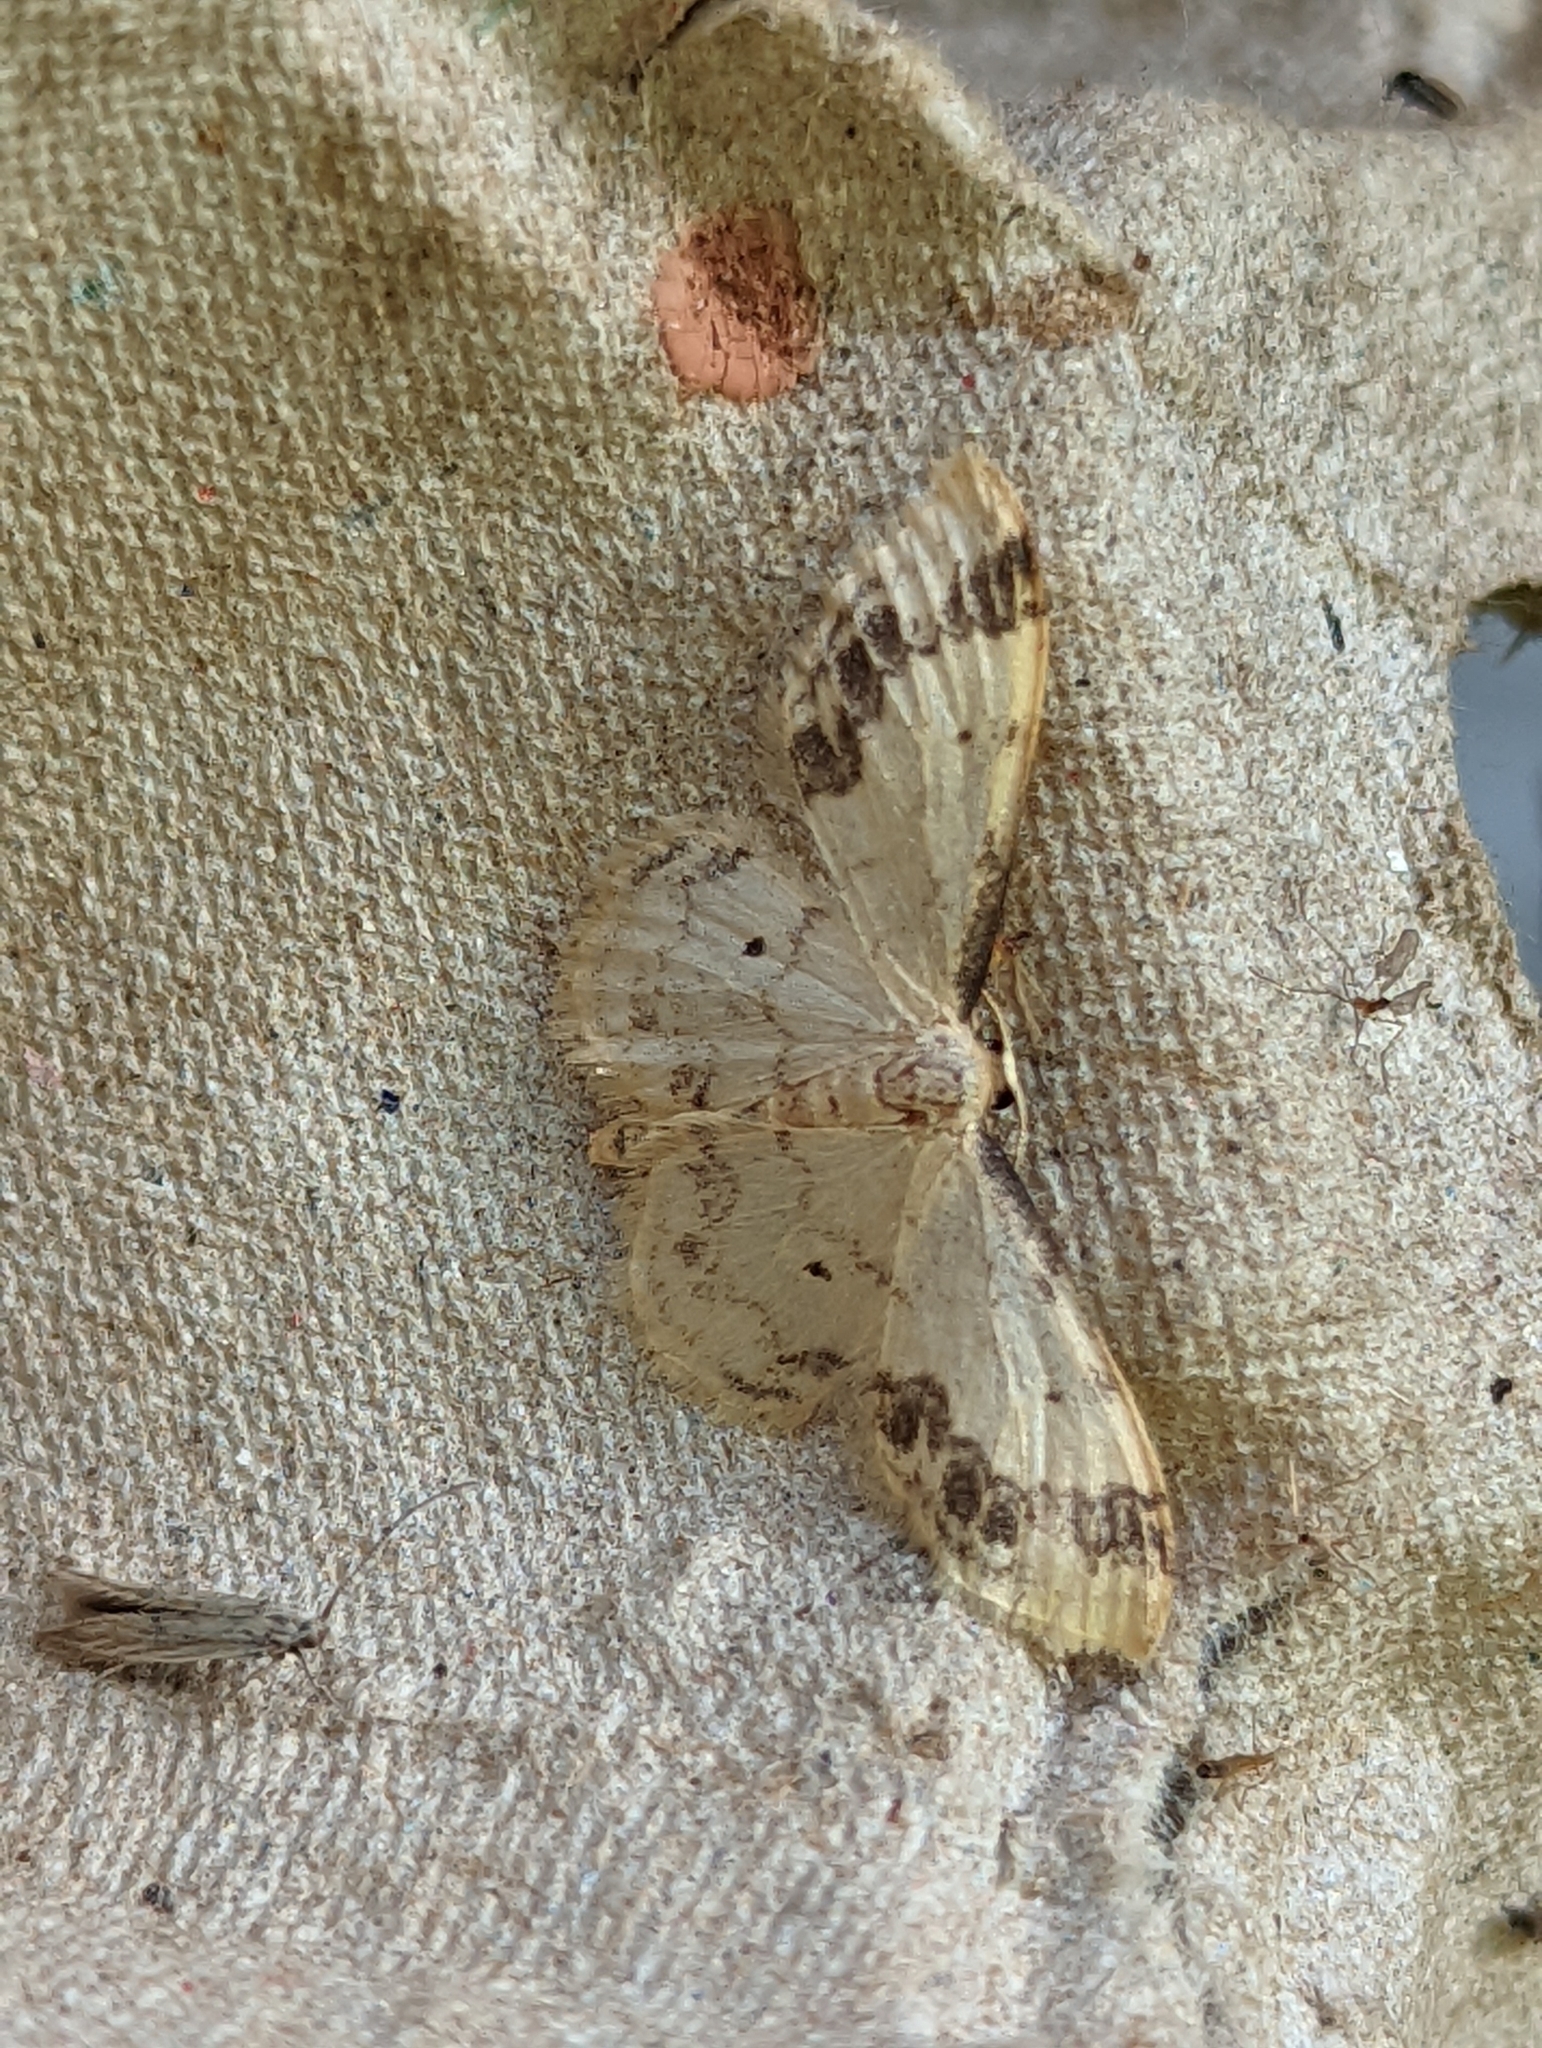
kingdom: Animalia
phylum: Arthropoda
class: Insecta
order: Lepidoptera
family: Geometridae
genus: Idaea
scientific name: Idaea trigeminata
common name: Treble brown spot
